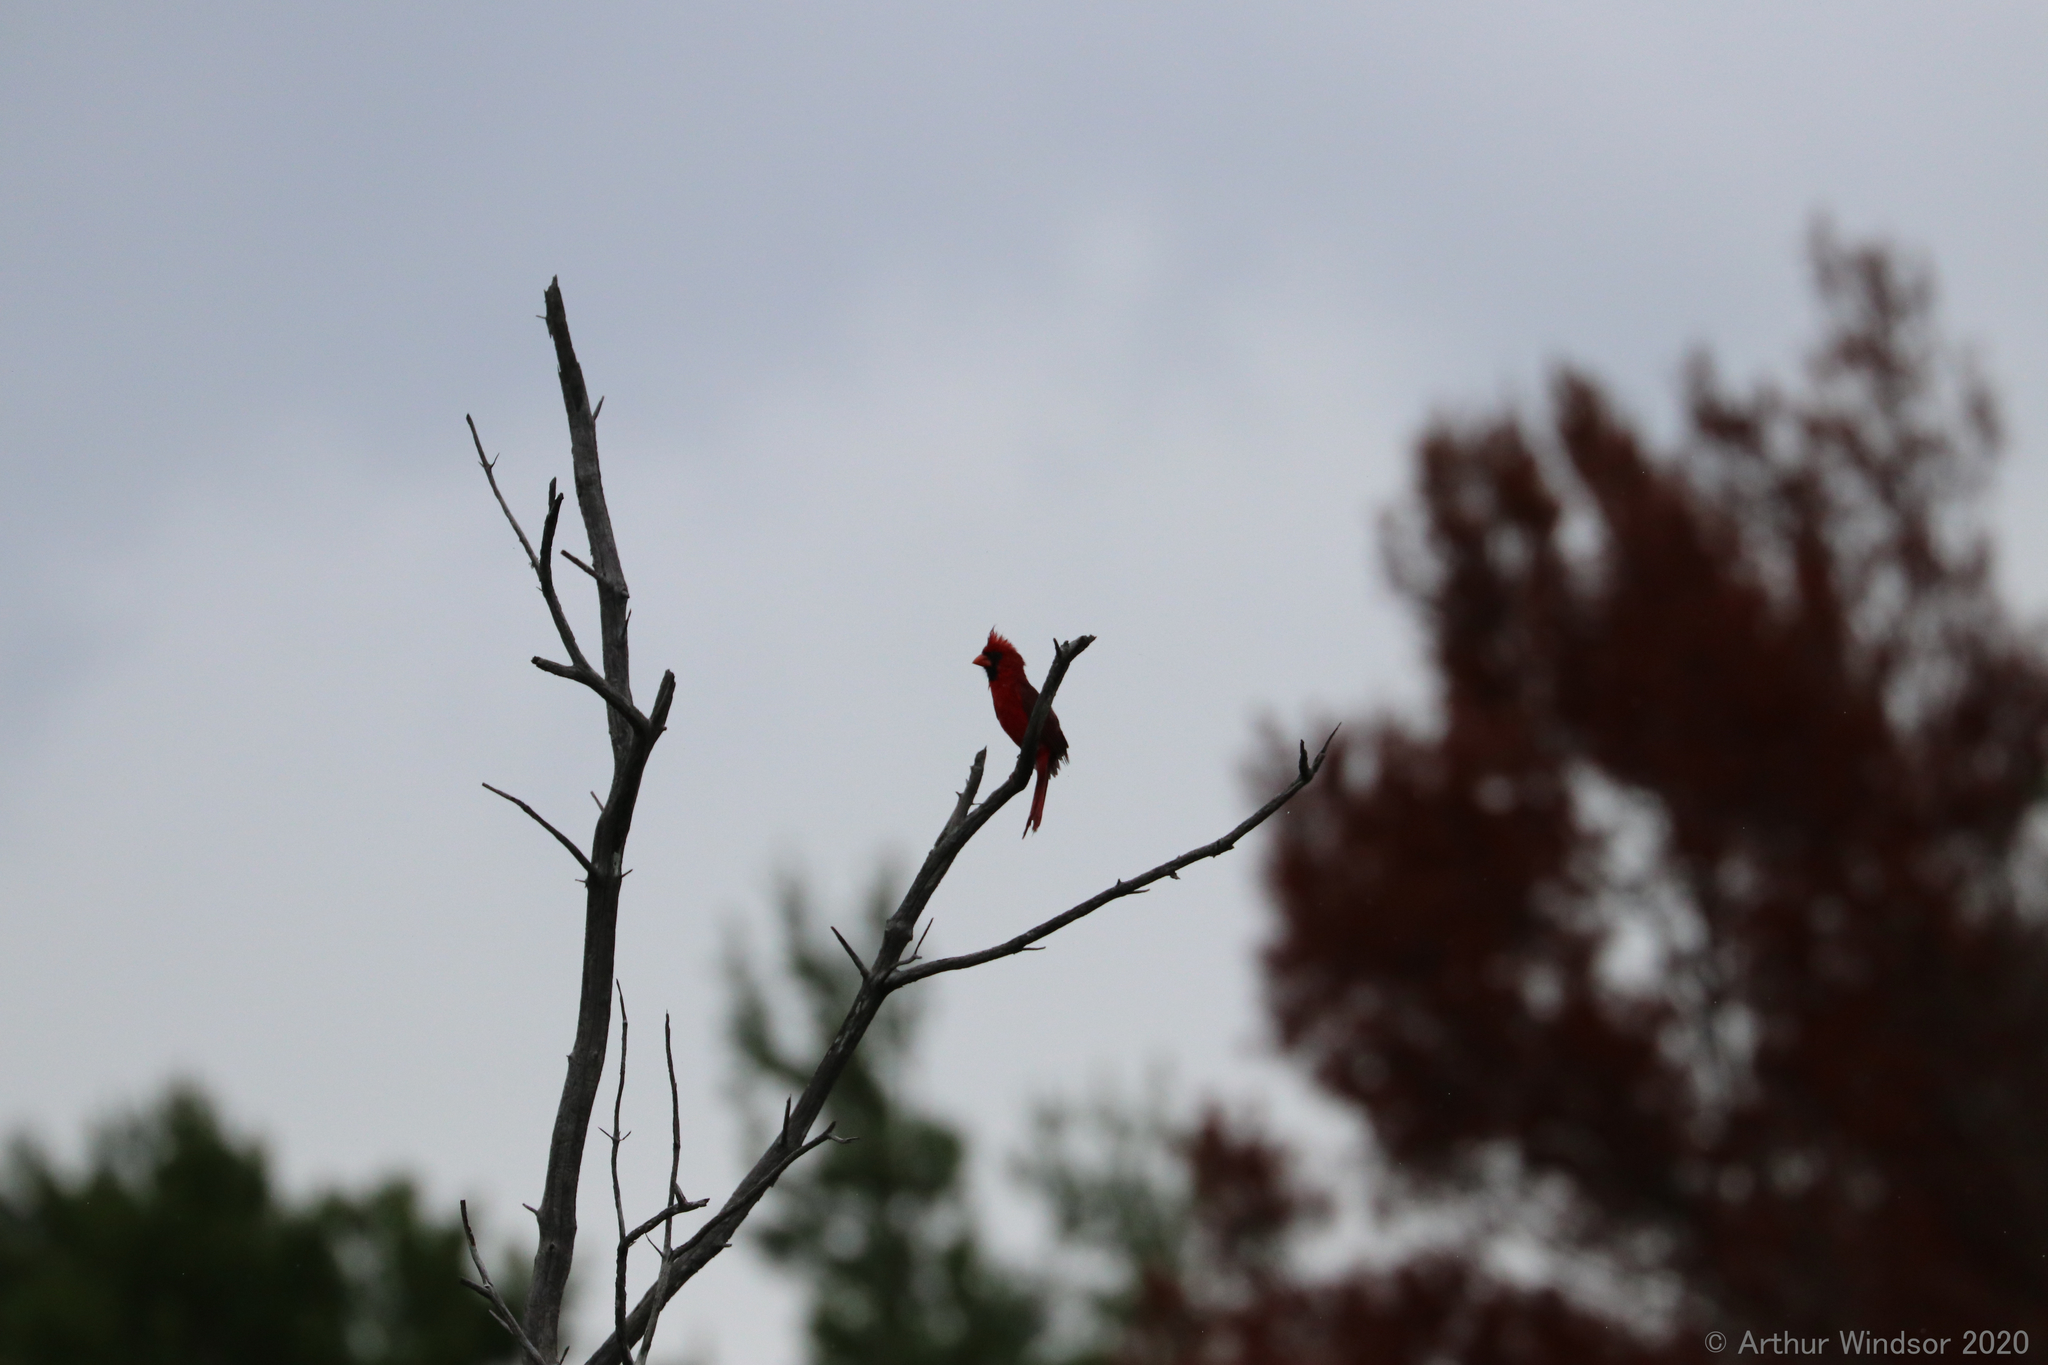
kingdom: Animalia
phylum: Chordata
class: Aves
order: Passeriformes
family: Cardinalidae
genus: Cardinalis
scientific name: Cardinalis cardinalis
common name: Northern cardinal
